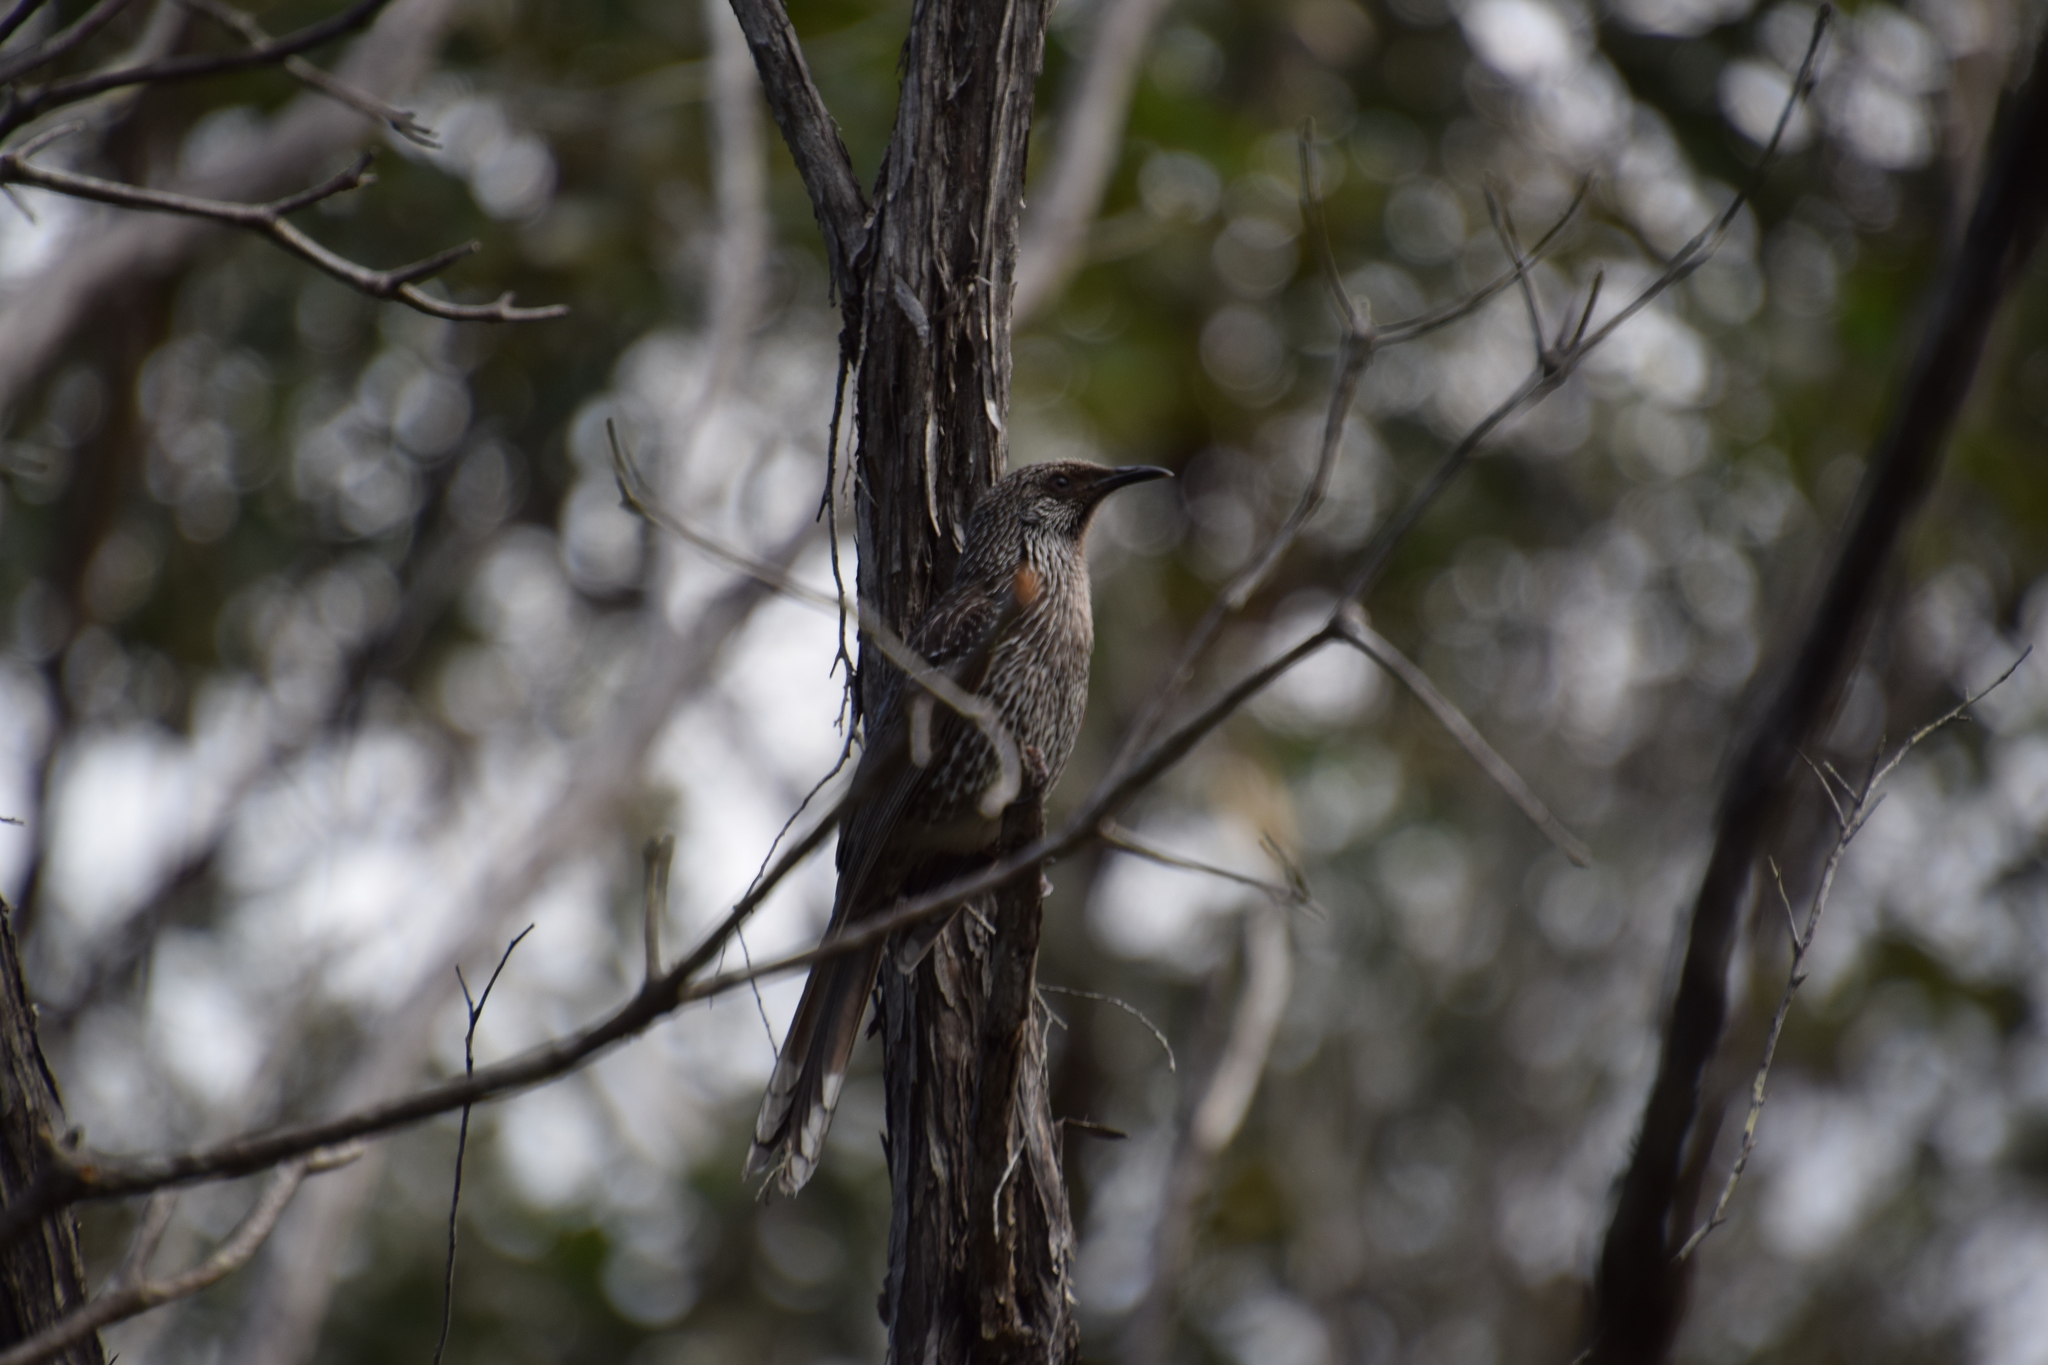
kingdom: Animalia
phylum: Chordata
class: Aves
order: Passeriformes
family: Meliphagidae
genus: Anthochaera
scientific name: Anthochaera chrysoptera
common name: Little wattlebird
